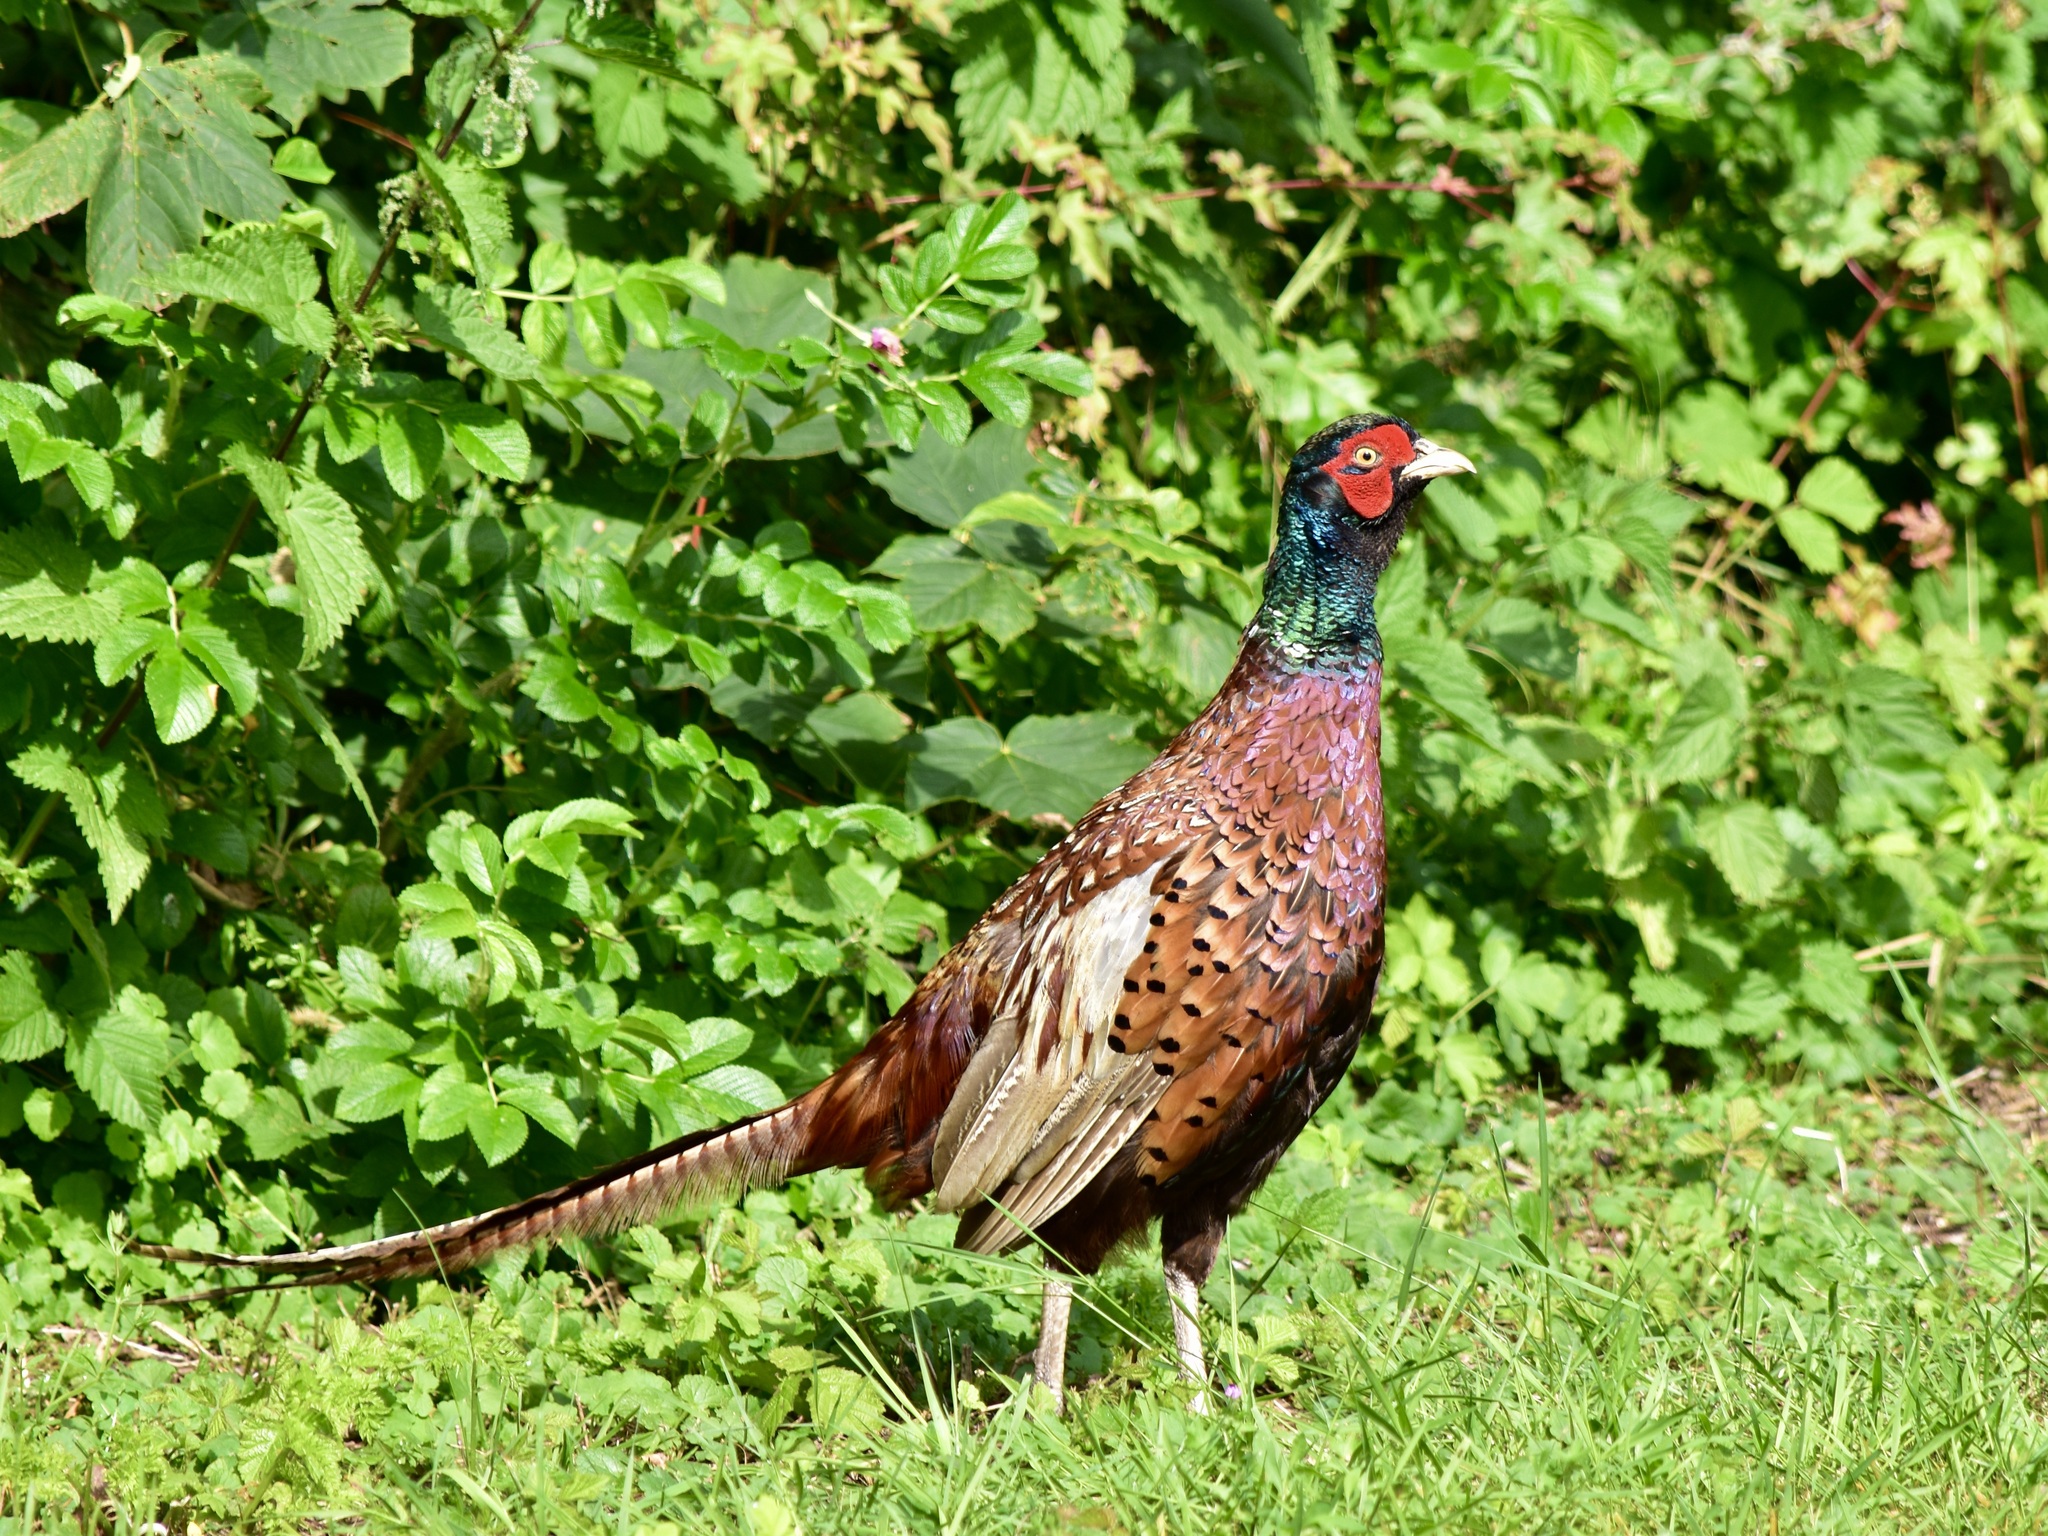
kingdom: Animalia
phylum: Chordata
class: Aves
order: Galliformes
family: Phasianidae
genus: Phasianus
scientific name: Phasianus colchicus
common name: Common pheasant
